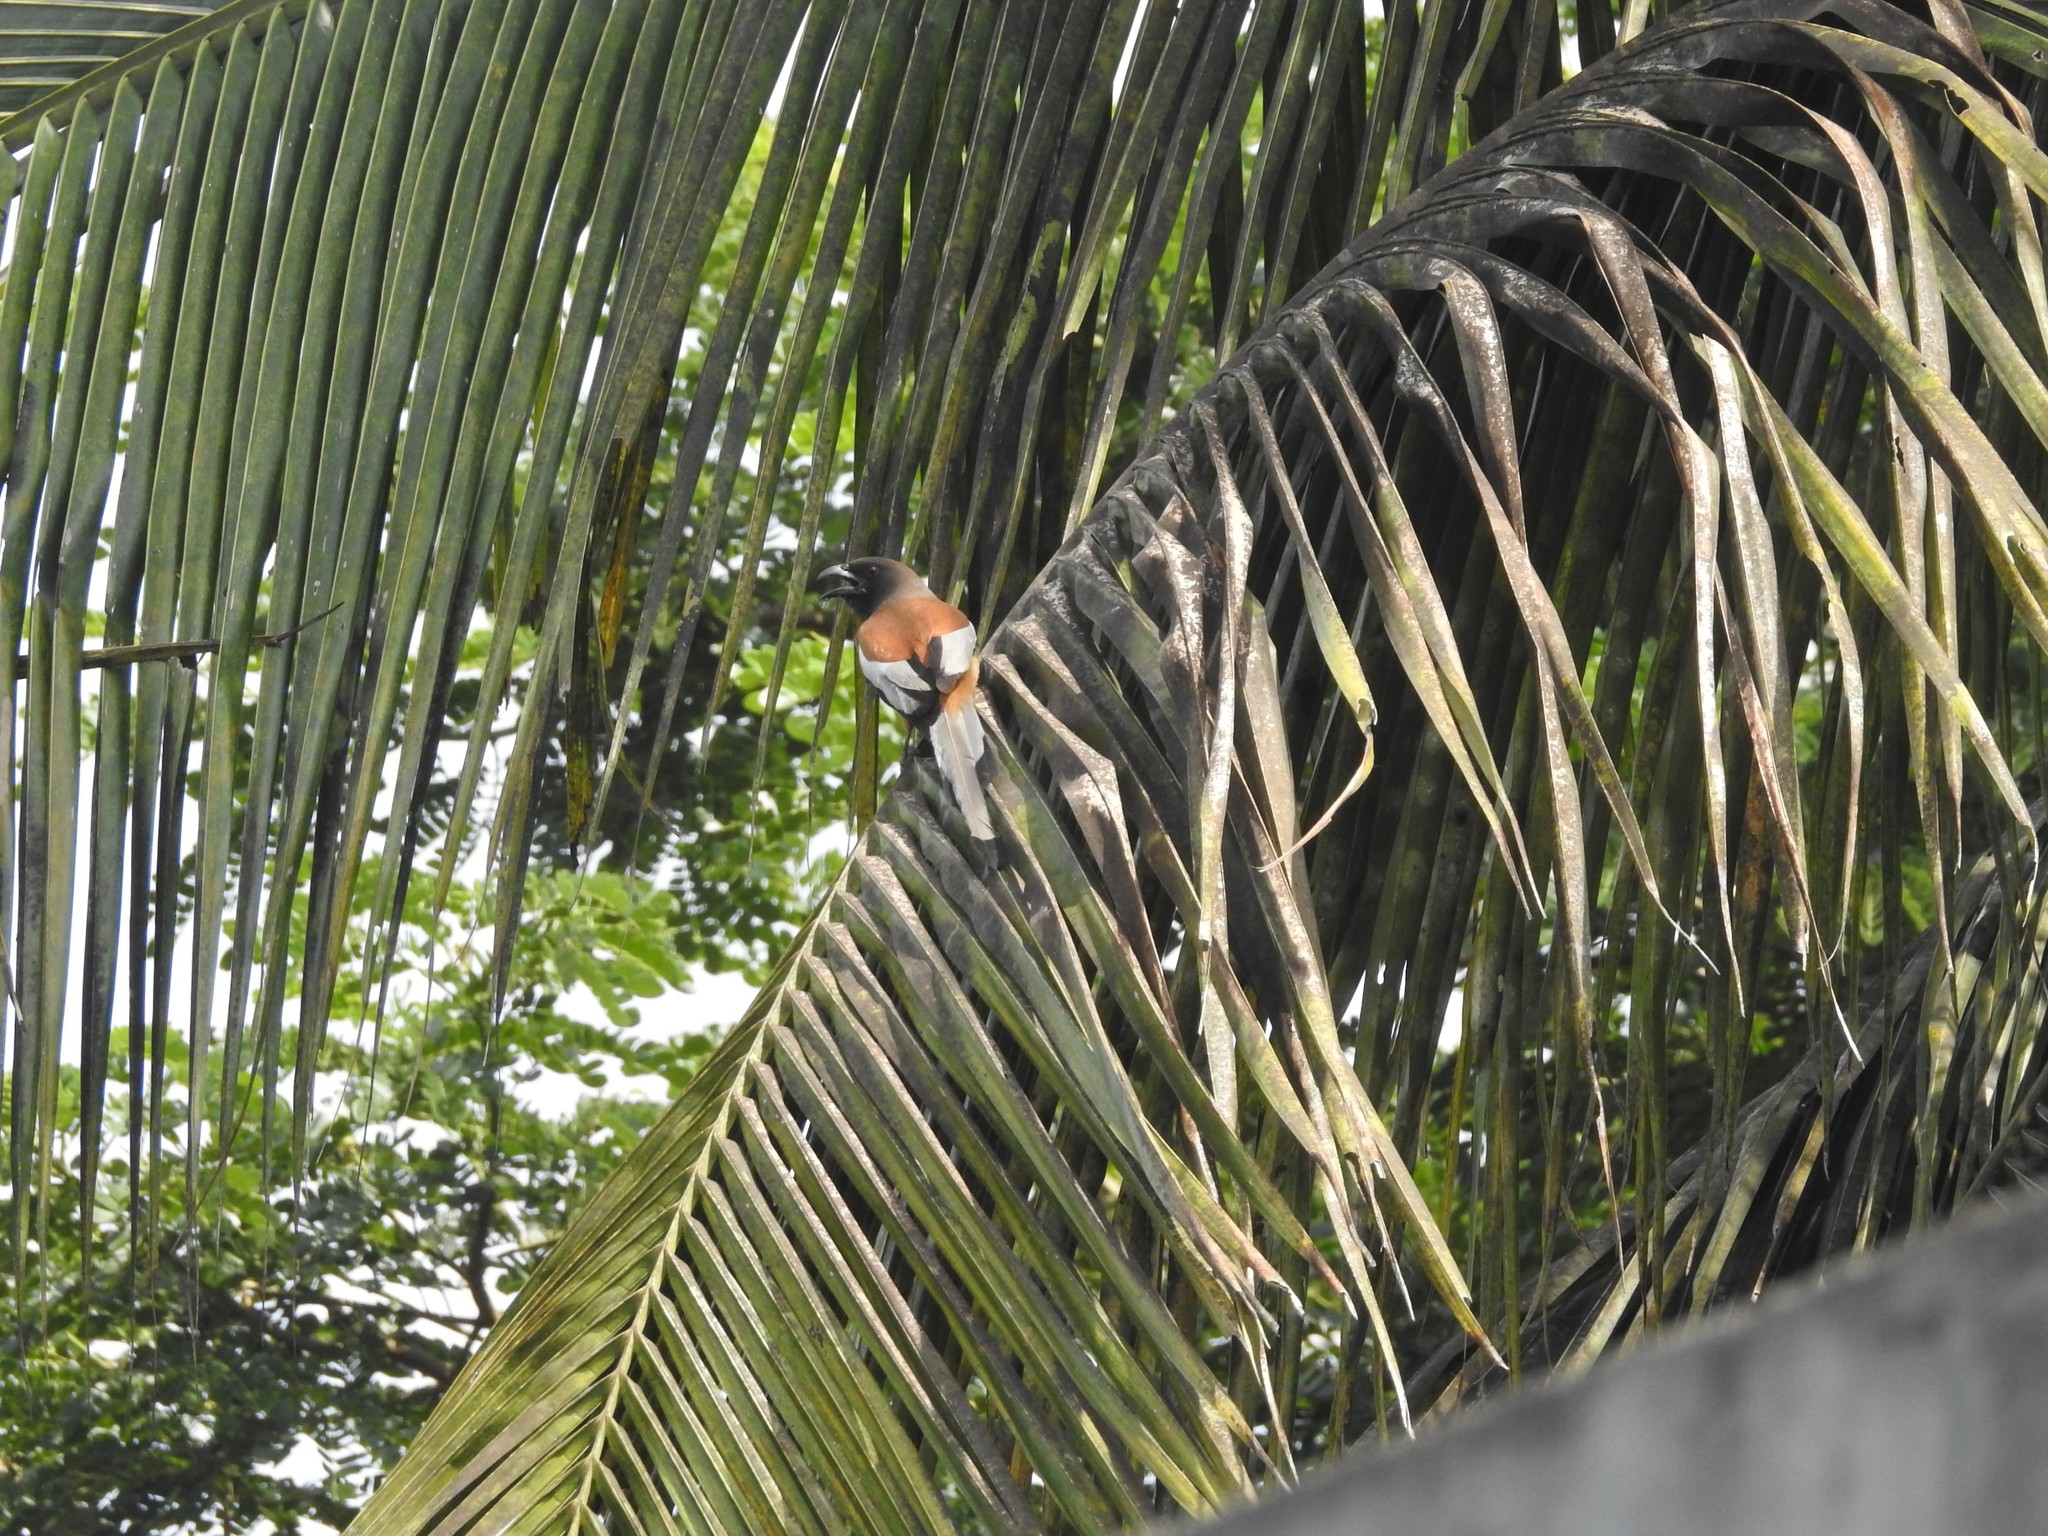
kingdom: Animalia
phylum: Chordata
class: Aves
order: Passeriformes
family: Corvidae
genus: Dendrocitta
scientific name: Dendrocitta vagabunda
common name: Rufous treepie
